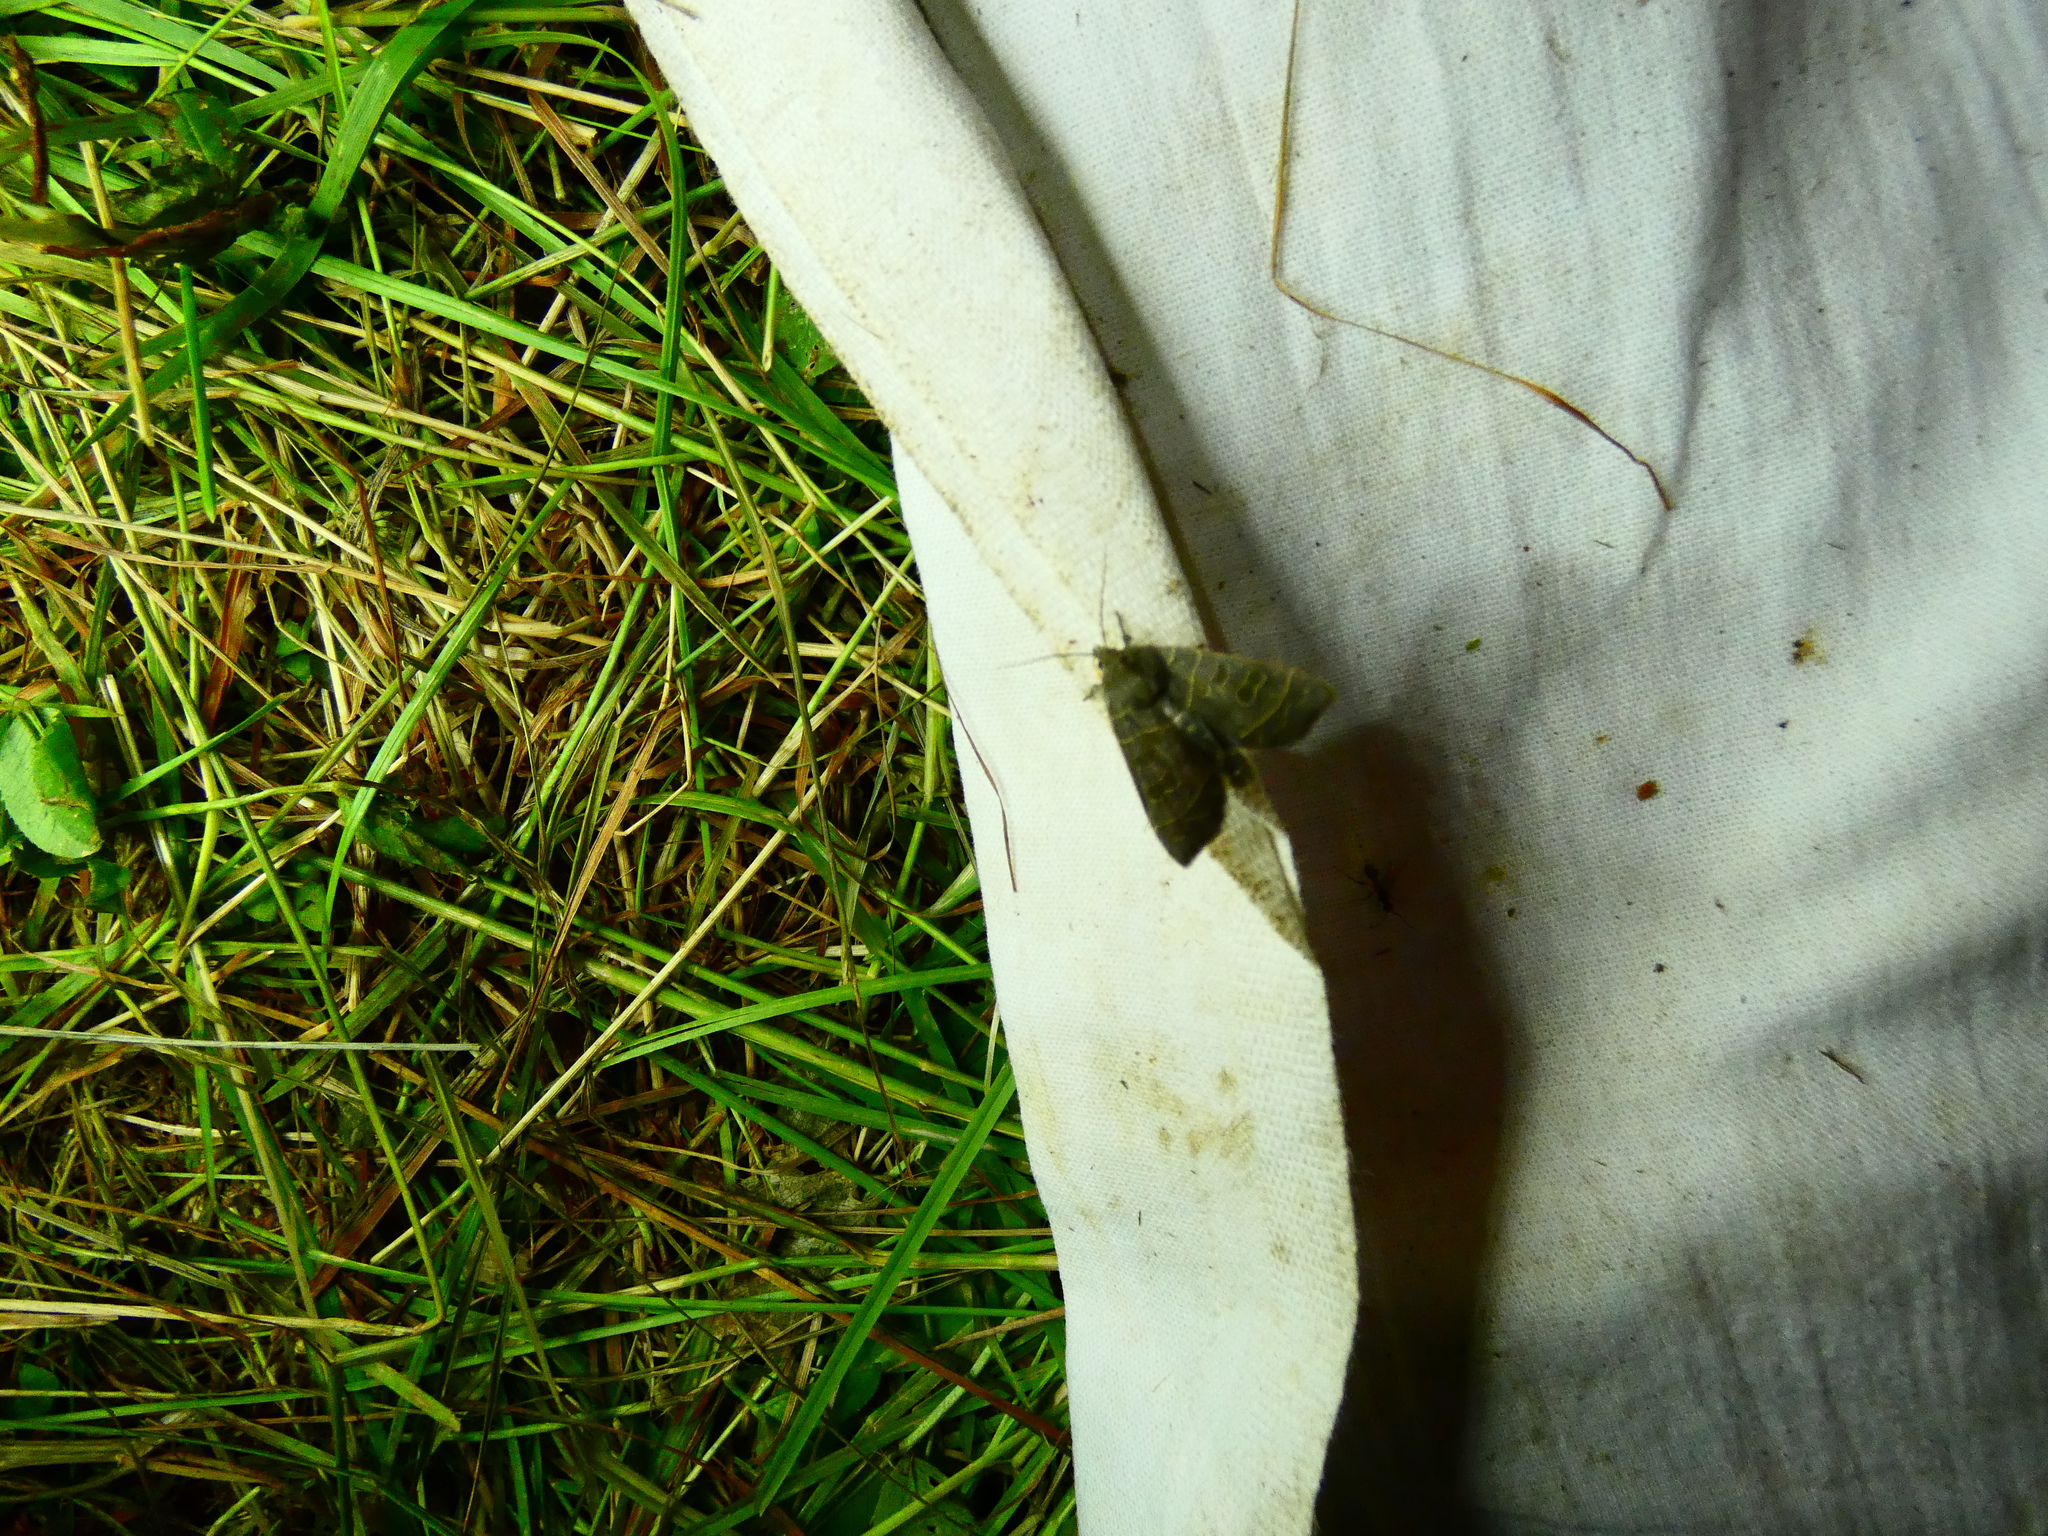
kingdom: Animalia
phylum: Arthropoda
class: Insecta
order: Lepidoptera
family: Noctuidae
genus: Ipimorpha
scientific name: Ipimorpha subtusa
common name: Olive
